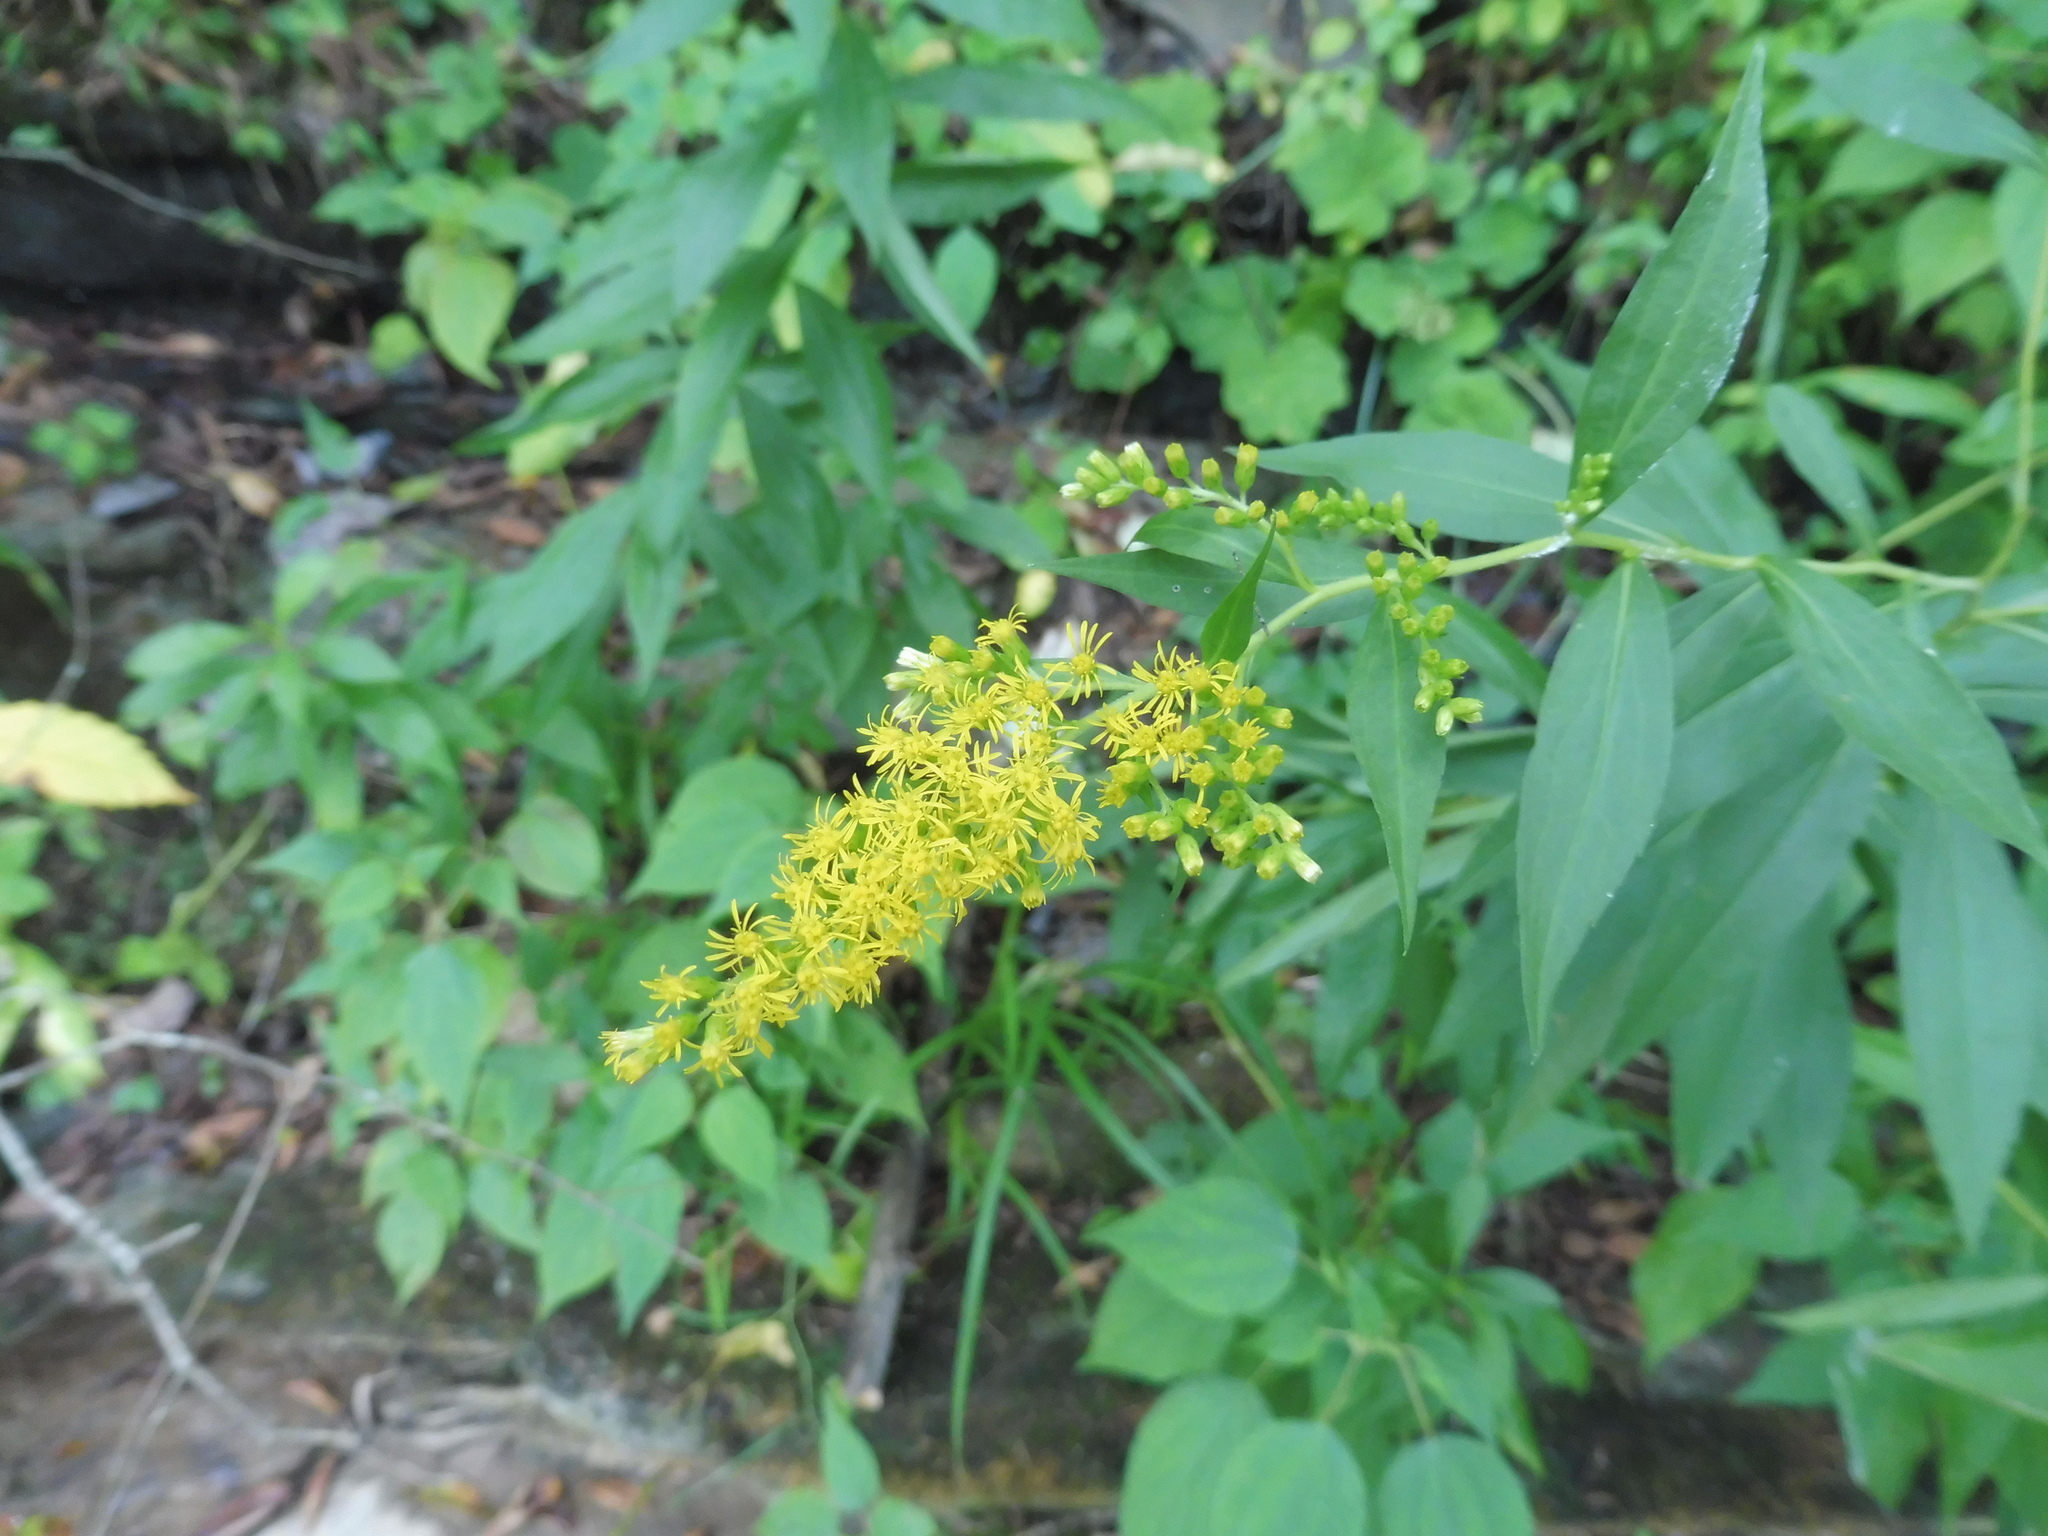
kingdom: Plantae
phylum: Tracheophyta
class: Magnoliopsida
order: Asterales
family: Asteraceae
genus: Solidago
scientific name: Solidago gigantea
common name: Giant goldenrod
